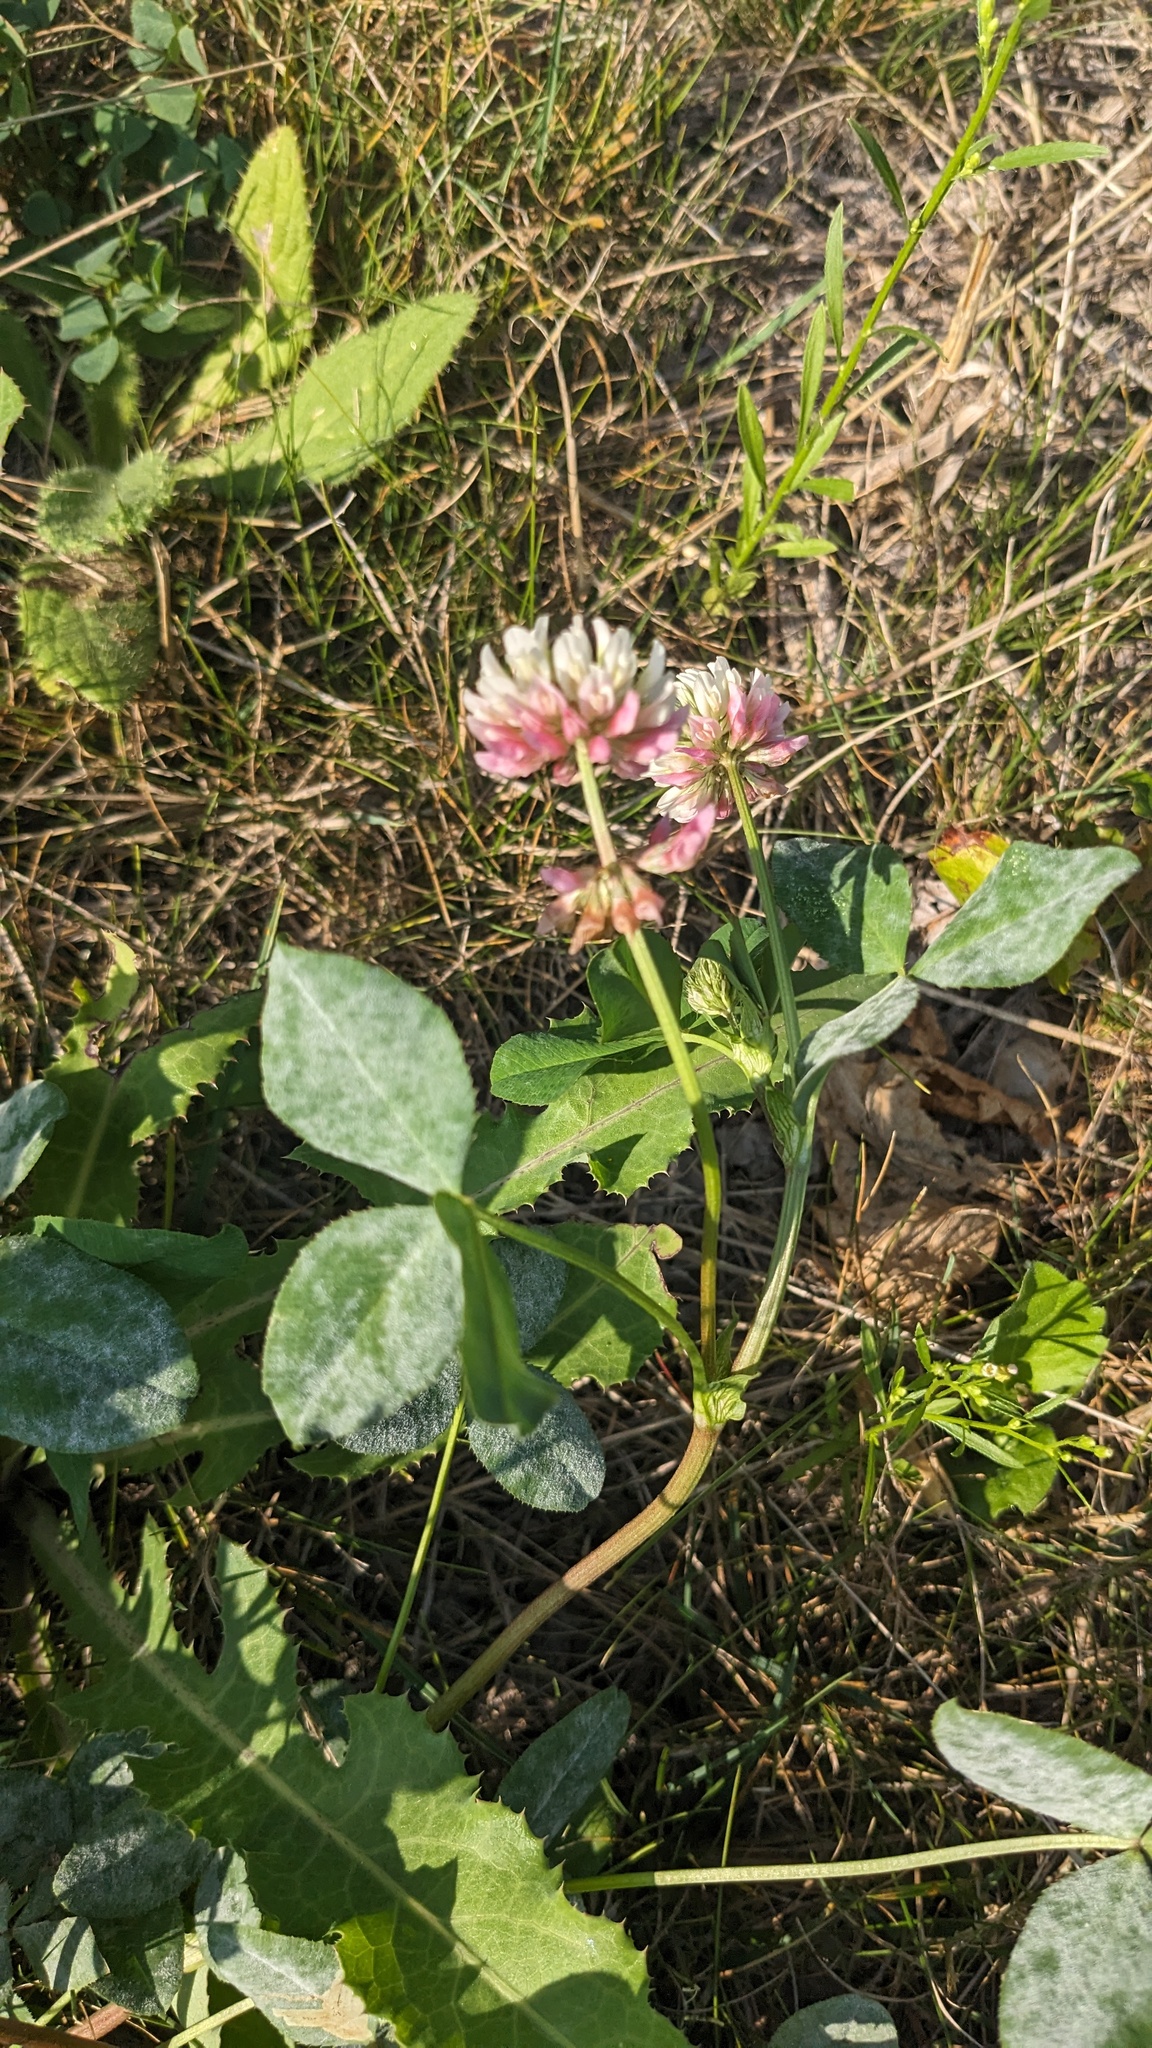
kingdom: Plantae
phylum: Tracheophyta
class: Magnoliopsida
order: Fabales
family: Fabaceae
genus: Trifolium
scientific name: Trifolium hybridum
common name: Alsike clover
